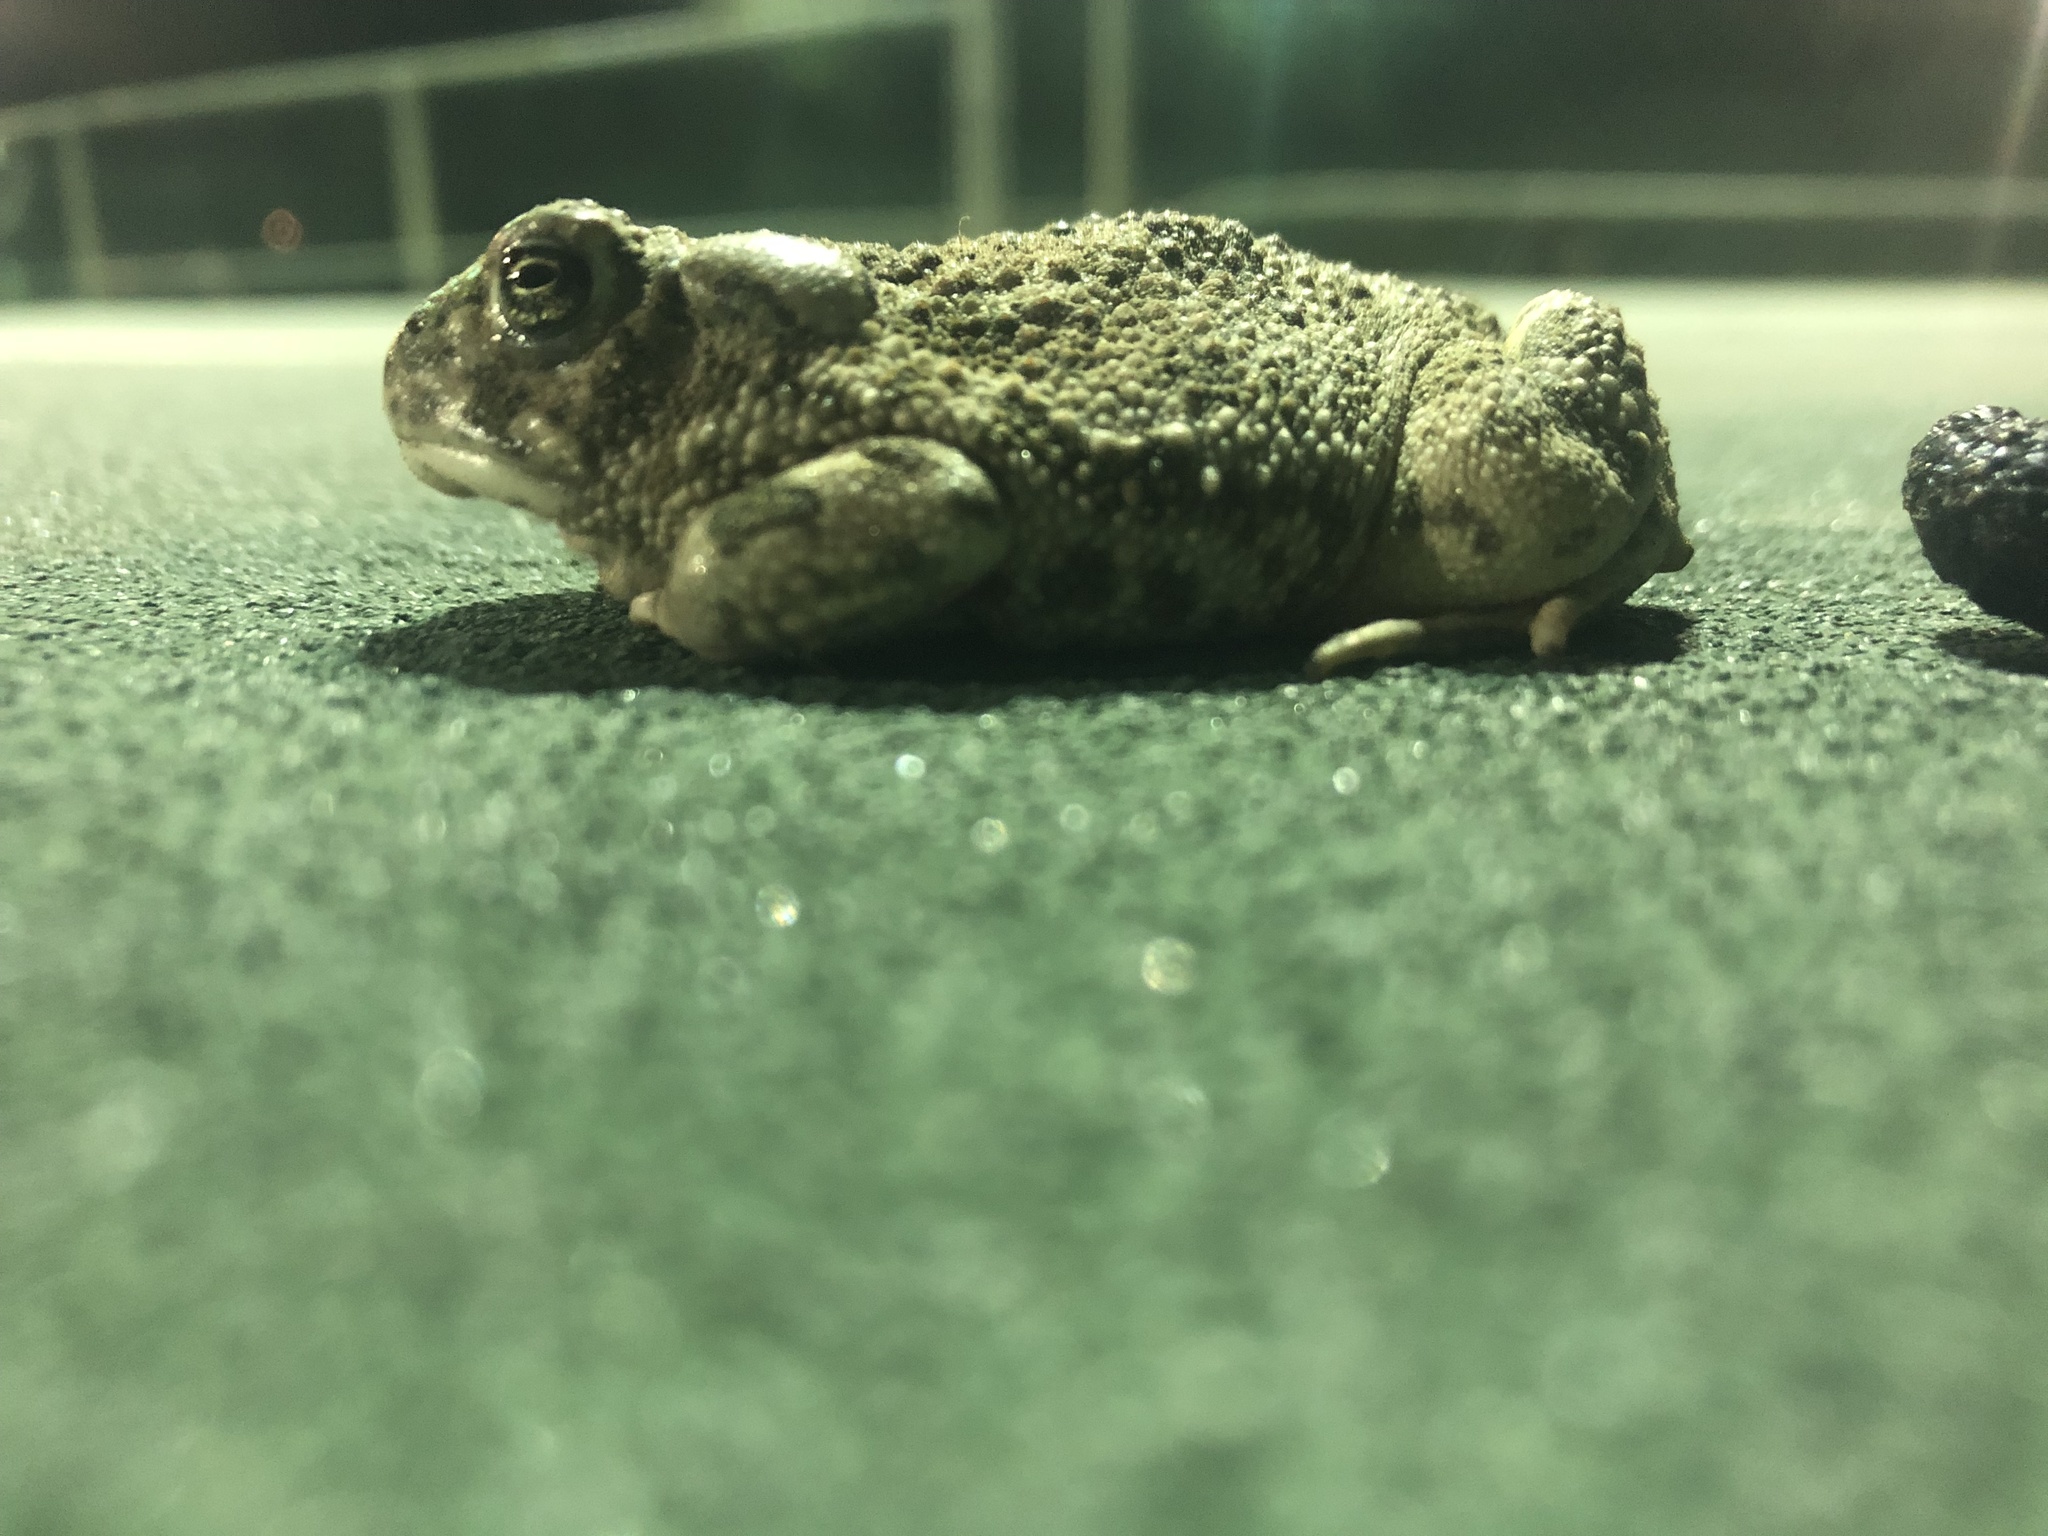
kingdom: Animalia
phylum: Chordata
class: Amphibia
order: Anura
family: Bufonidae
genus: Anaxyrus
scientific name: Anaxyrus cognatus
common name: Great plains toad
